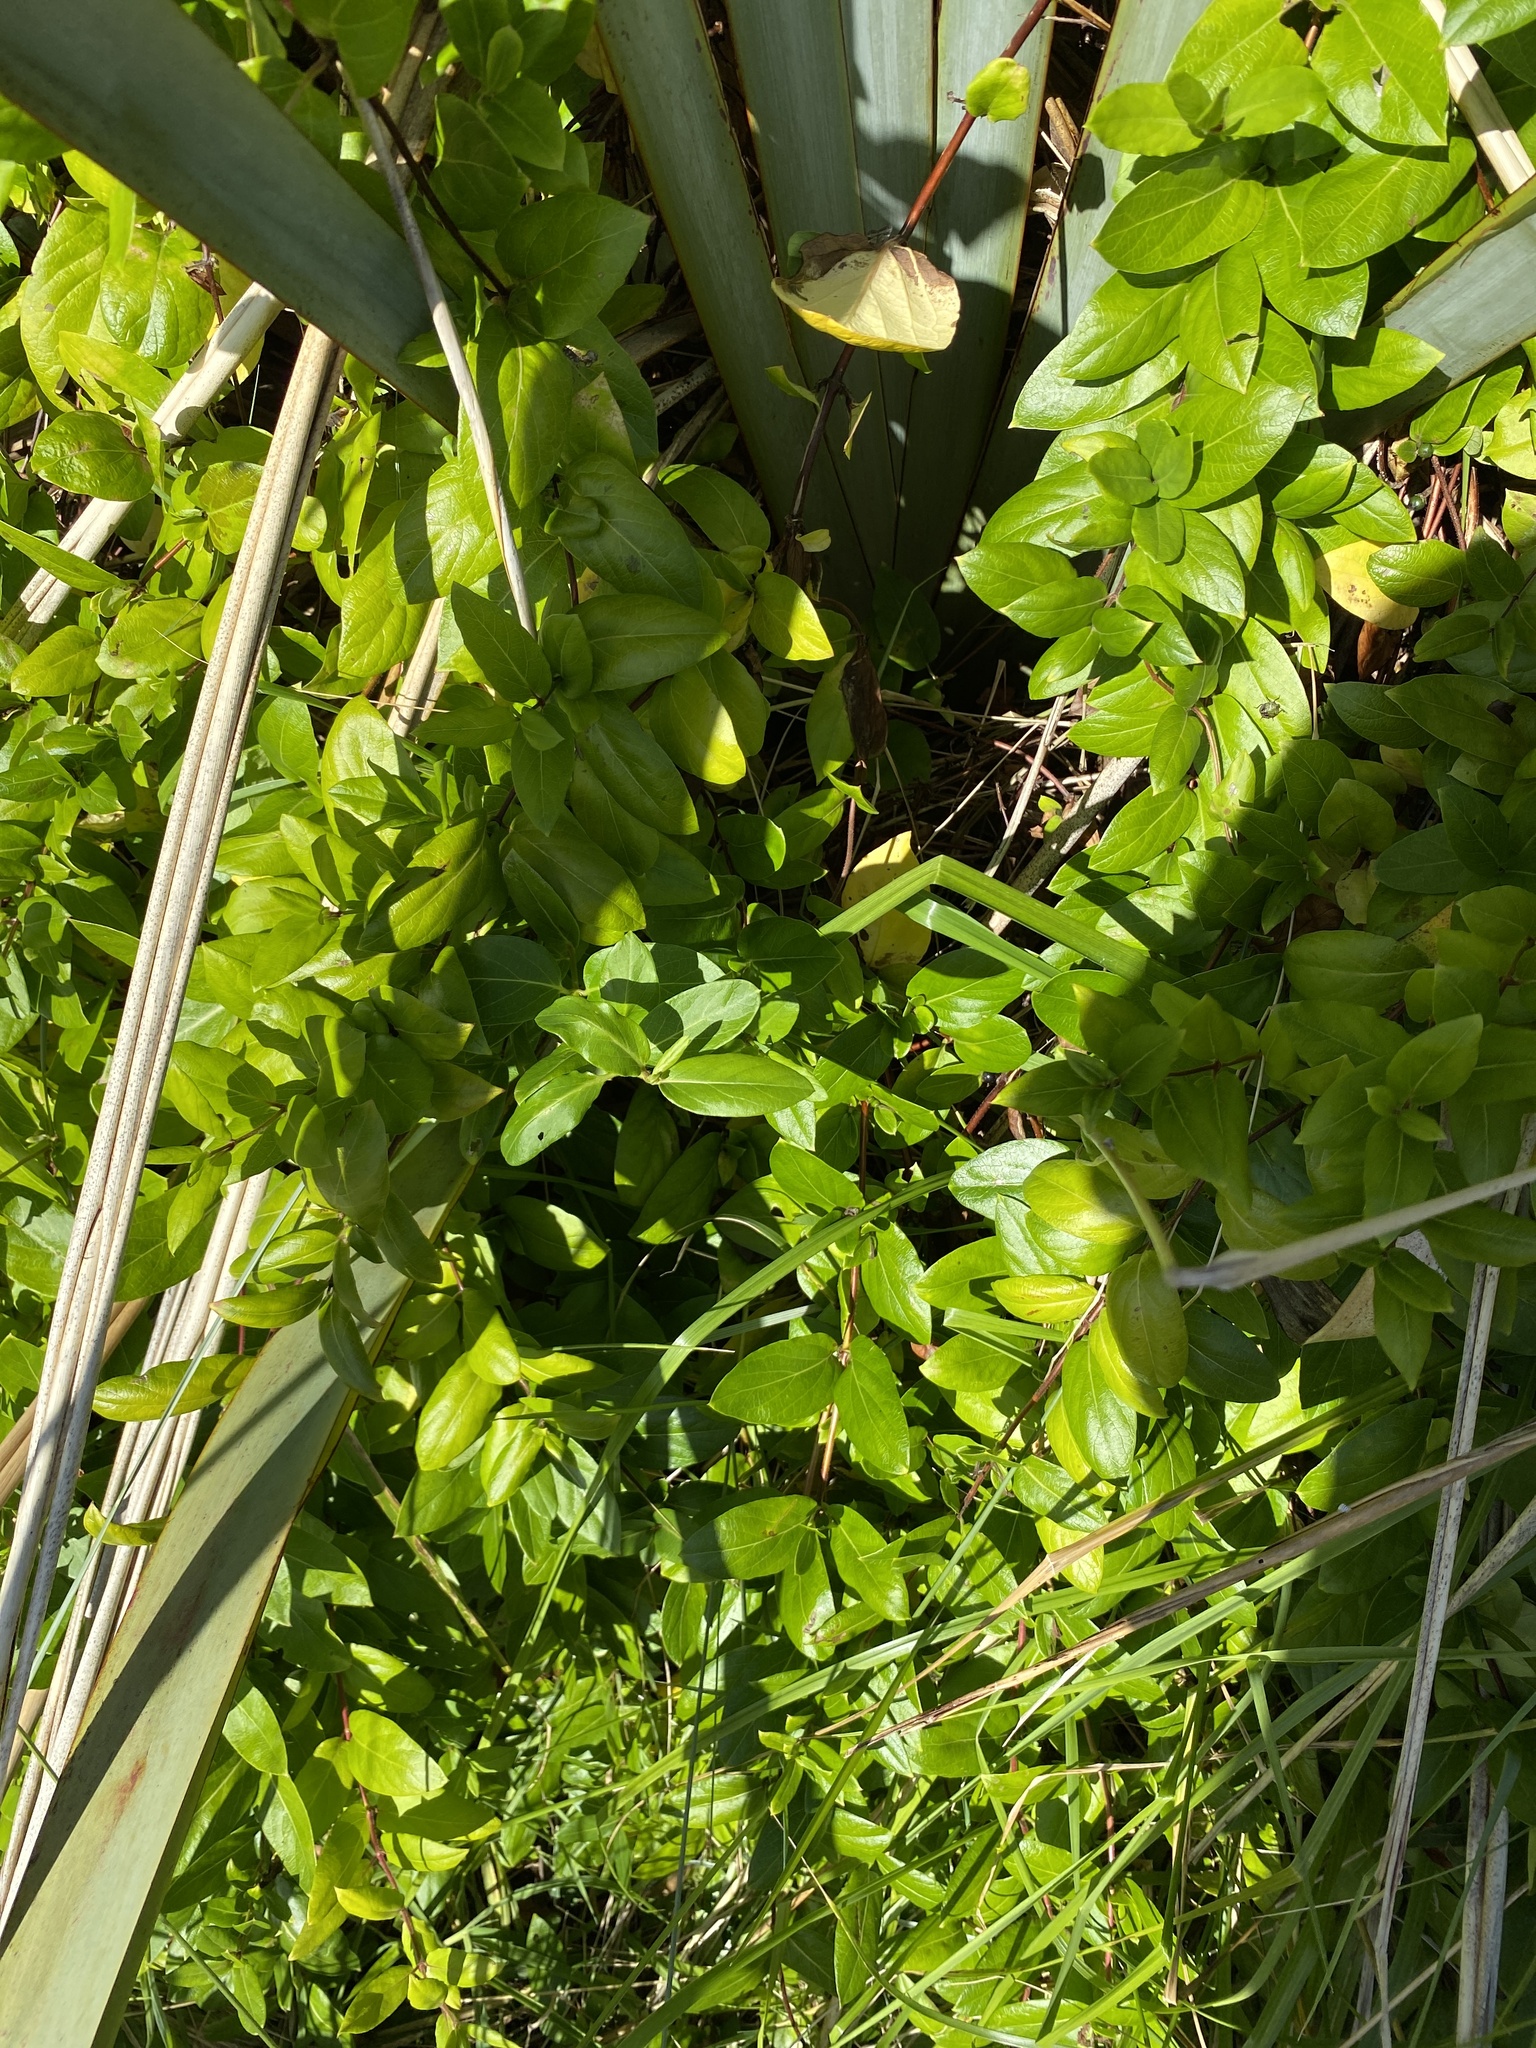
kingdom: Plantae
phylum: Tracheophyta
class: Magnoliopsida
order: Dipsacales
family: Caprifoliaceae
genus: Lonicera
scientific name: Lonicera japonica
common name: Japanese honeysuckle
